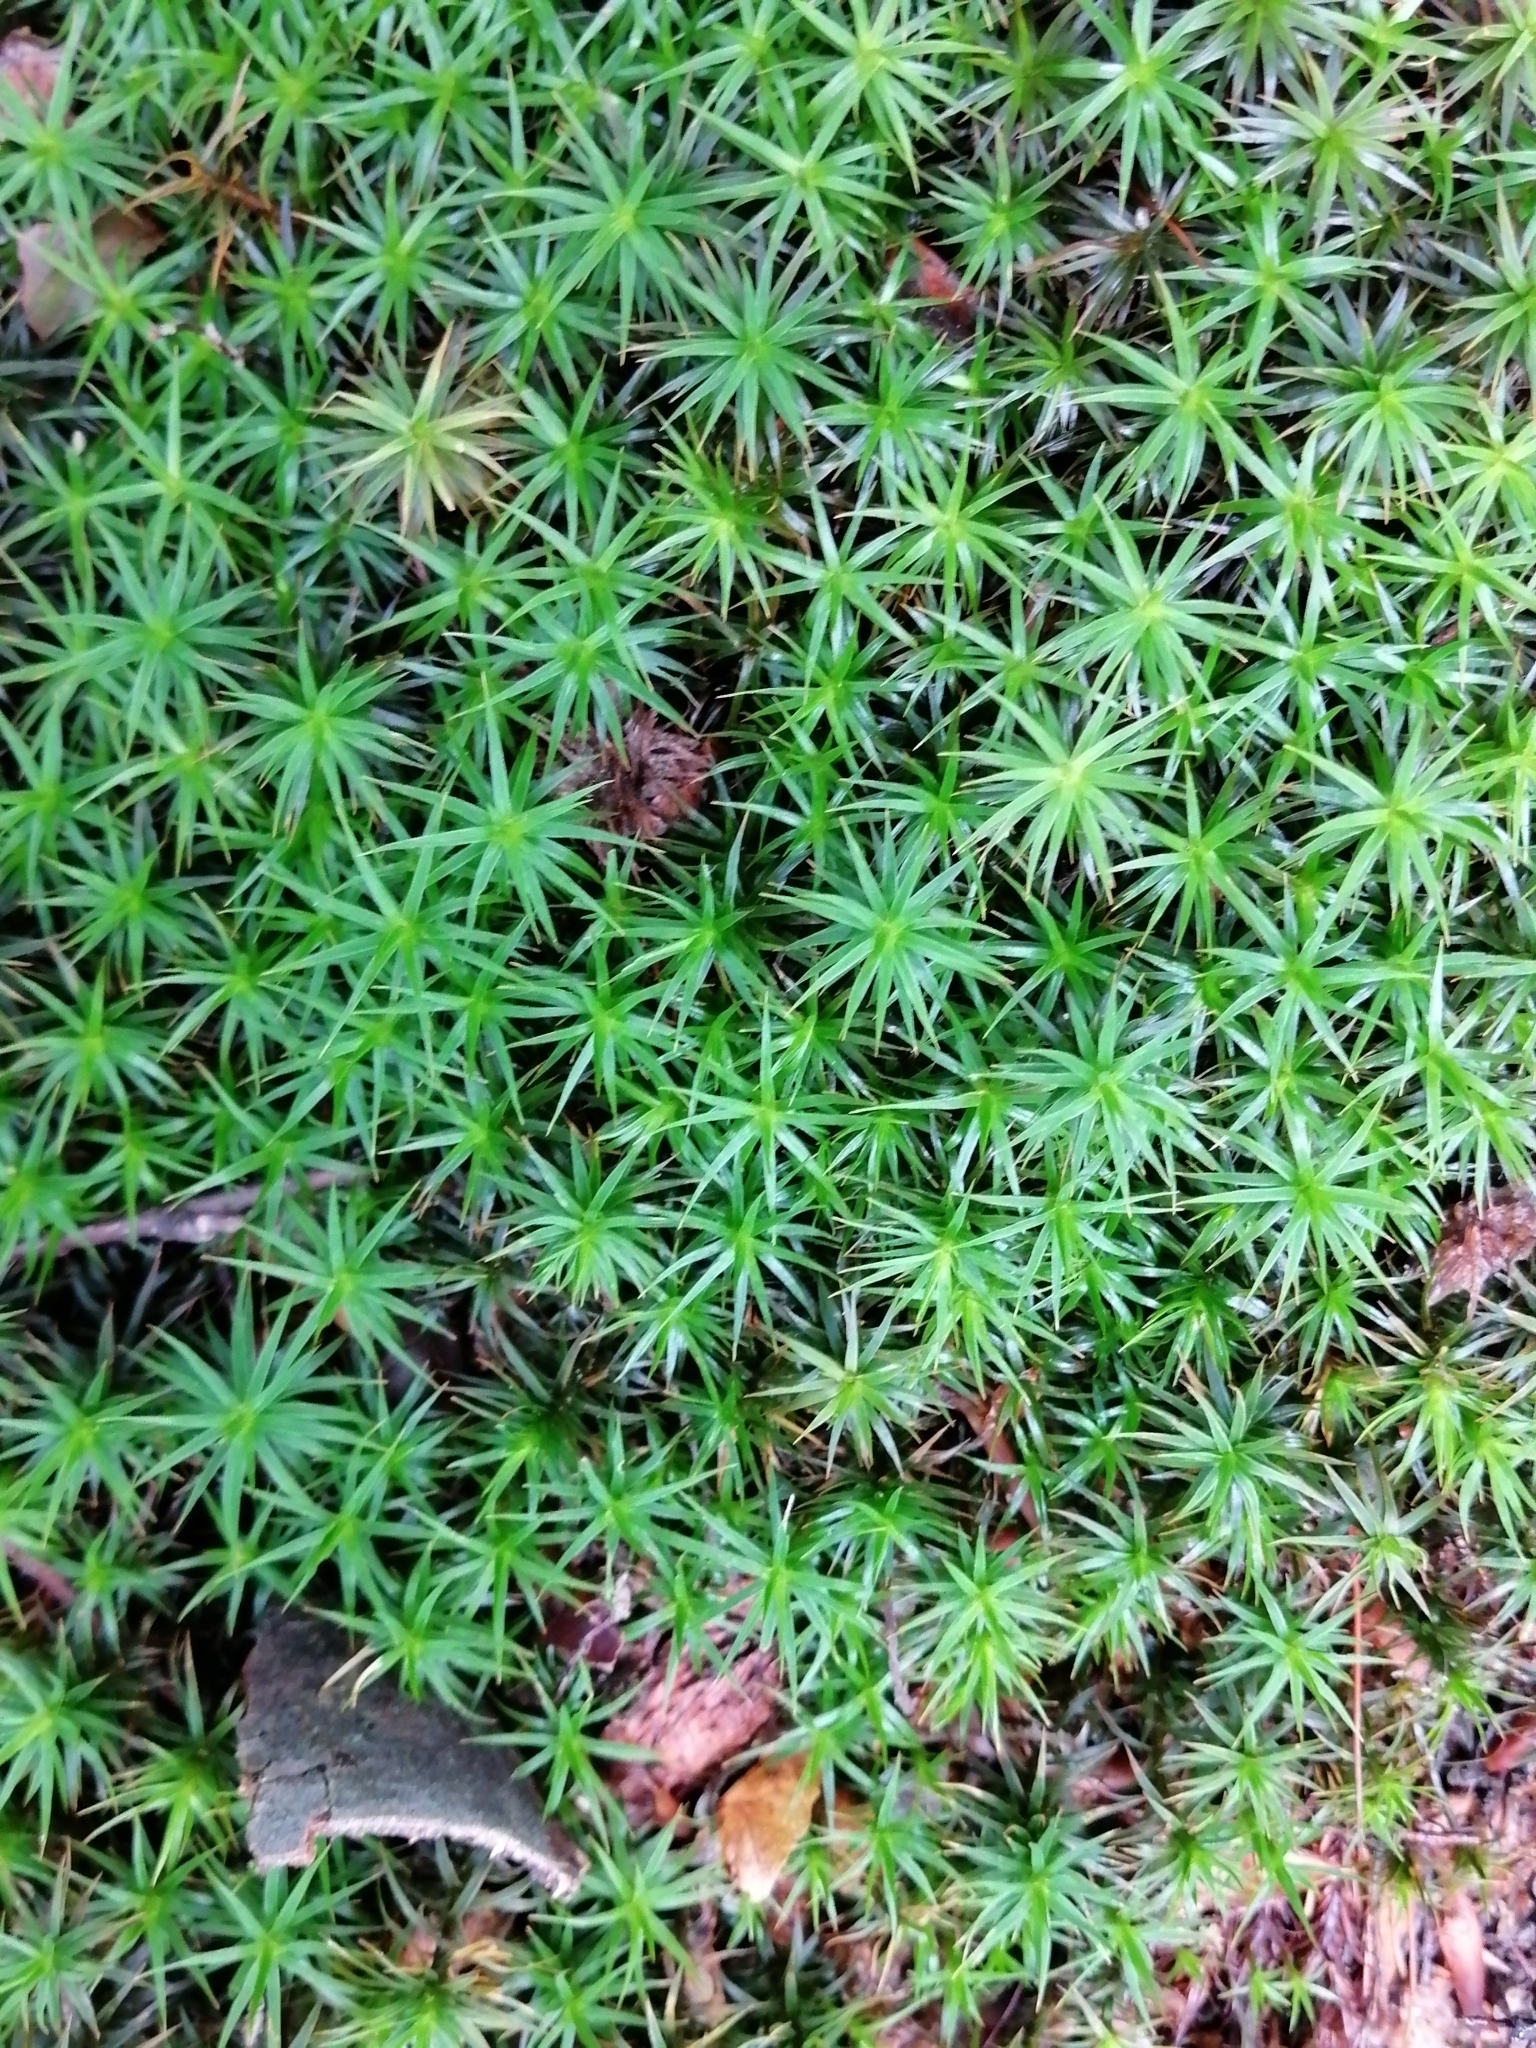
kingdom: Plantae
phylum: Bryophyta
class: Polytrichopsida
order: Polytrichales
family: Polytrichaceae
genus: Polytrichum
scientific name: Polytrichum formosum
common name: Bank haircap moss
